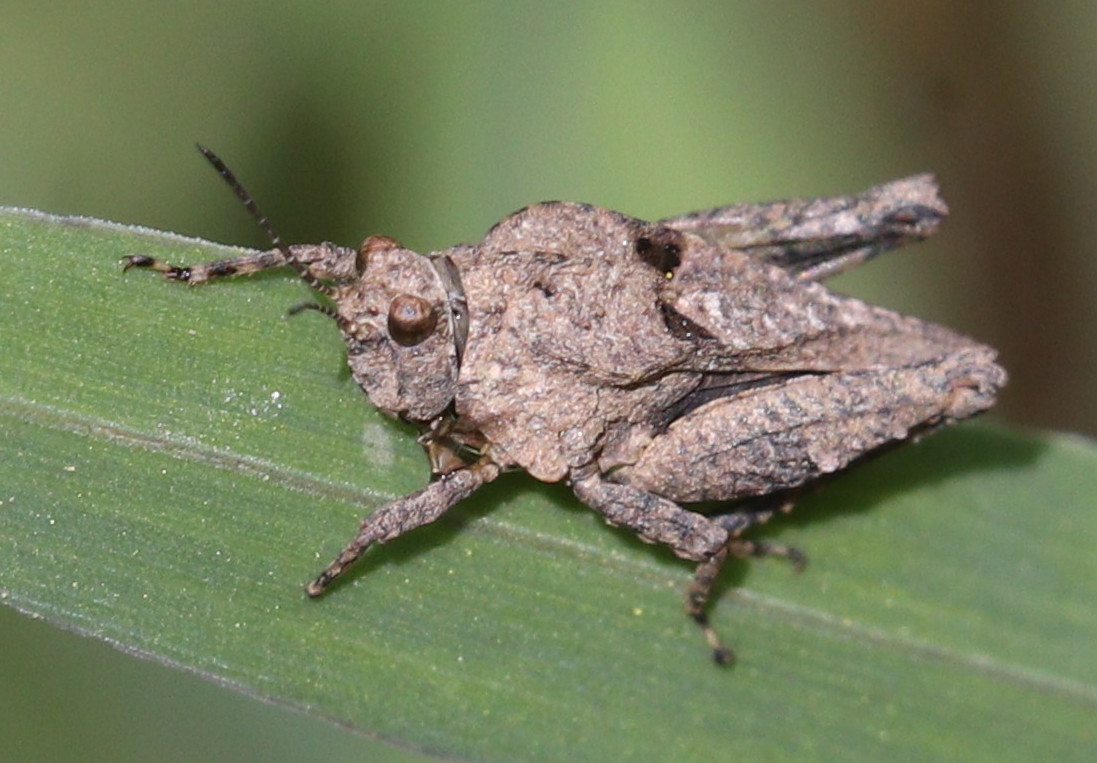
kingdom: Animalia
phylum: Arthropoda
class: Insecta
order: Orthoptera
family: Tetrigidae
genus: Tetrix
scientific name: Tetrix depressa
